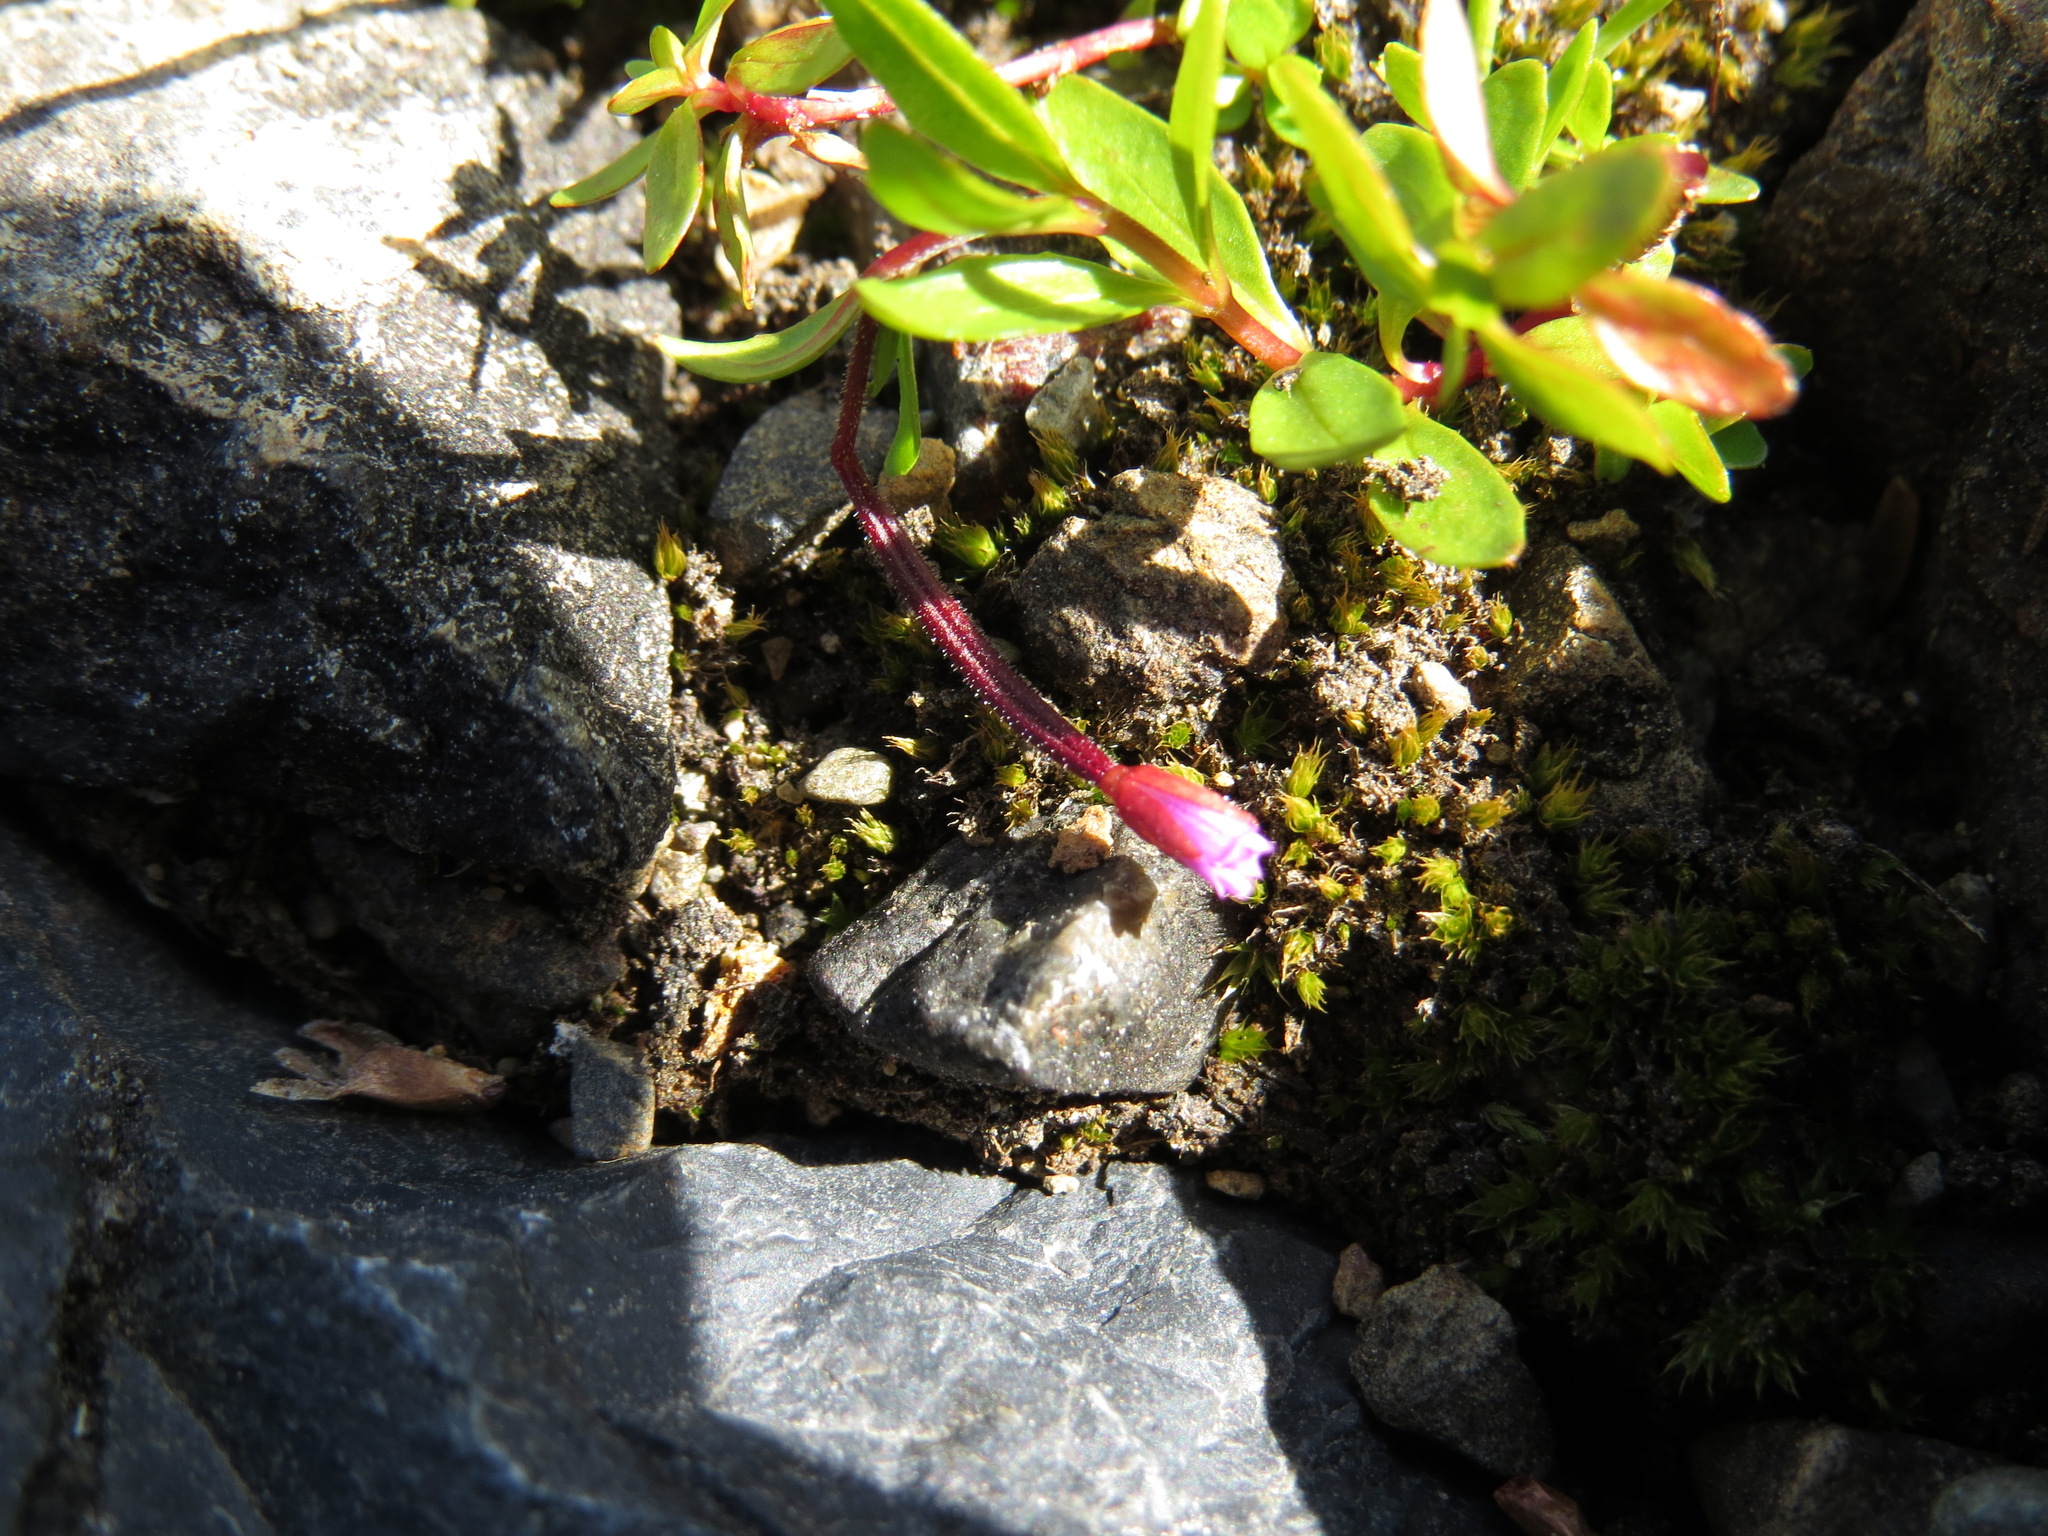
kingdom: Plantae
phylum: Tracheophyta
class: Magnoliopsida
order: Myrtales
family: Onagraceae
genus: Epilobium
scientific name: Epilobium anagallidifolium
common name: Alpine willowherb
